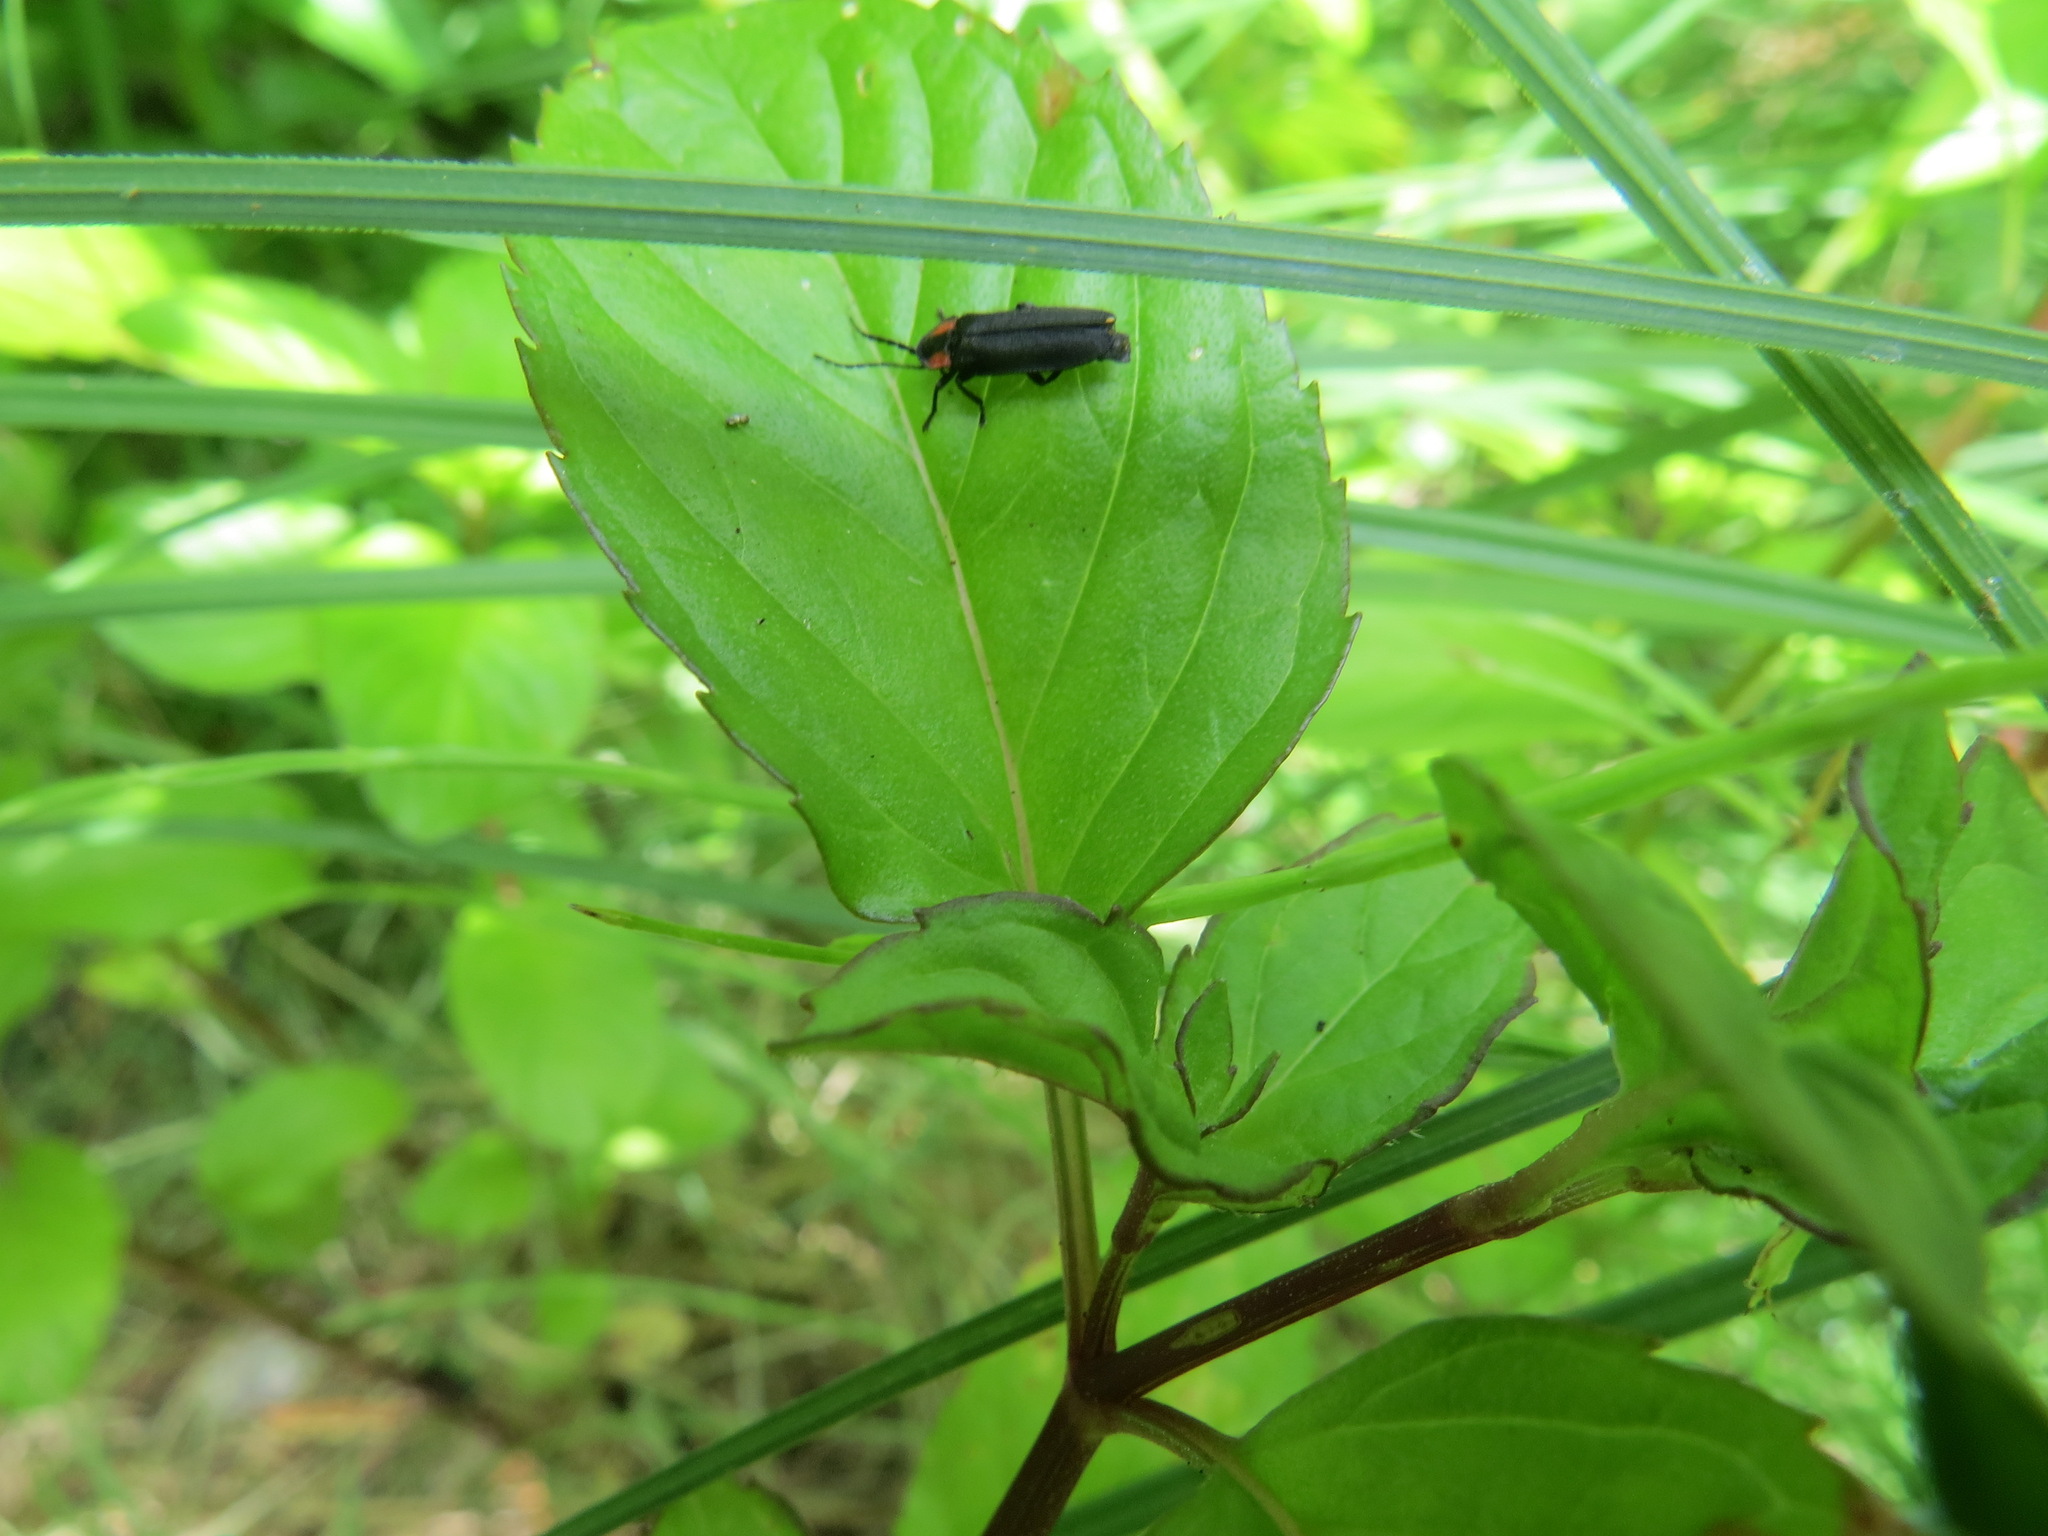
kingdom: Animalia
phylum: Arthropoda
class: Insecta
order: Coleoptera
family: Lampyridae
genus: Pyropyga
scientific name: Pyropyga nigricans
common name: Dark firefly
